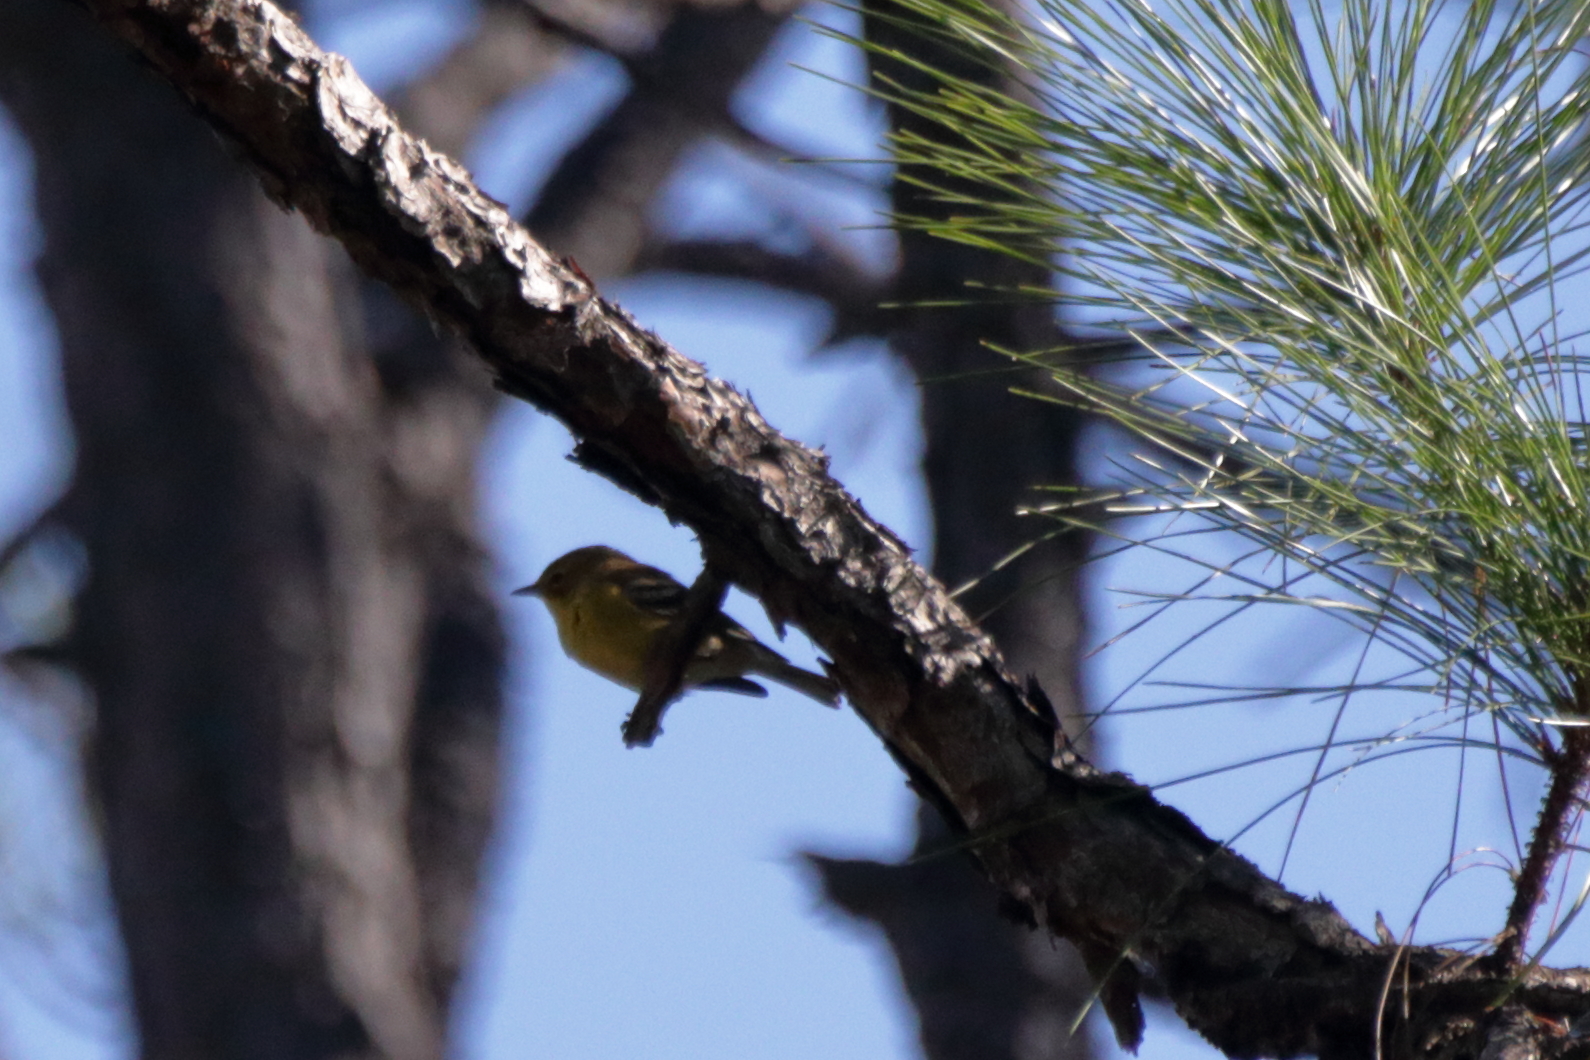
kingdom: Animalia
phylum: Chordata
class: Aves
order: Passeriformes
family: Parulidae
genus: Setophaga
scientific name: Setophaga pinus
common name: Pine warbler
